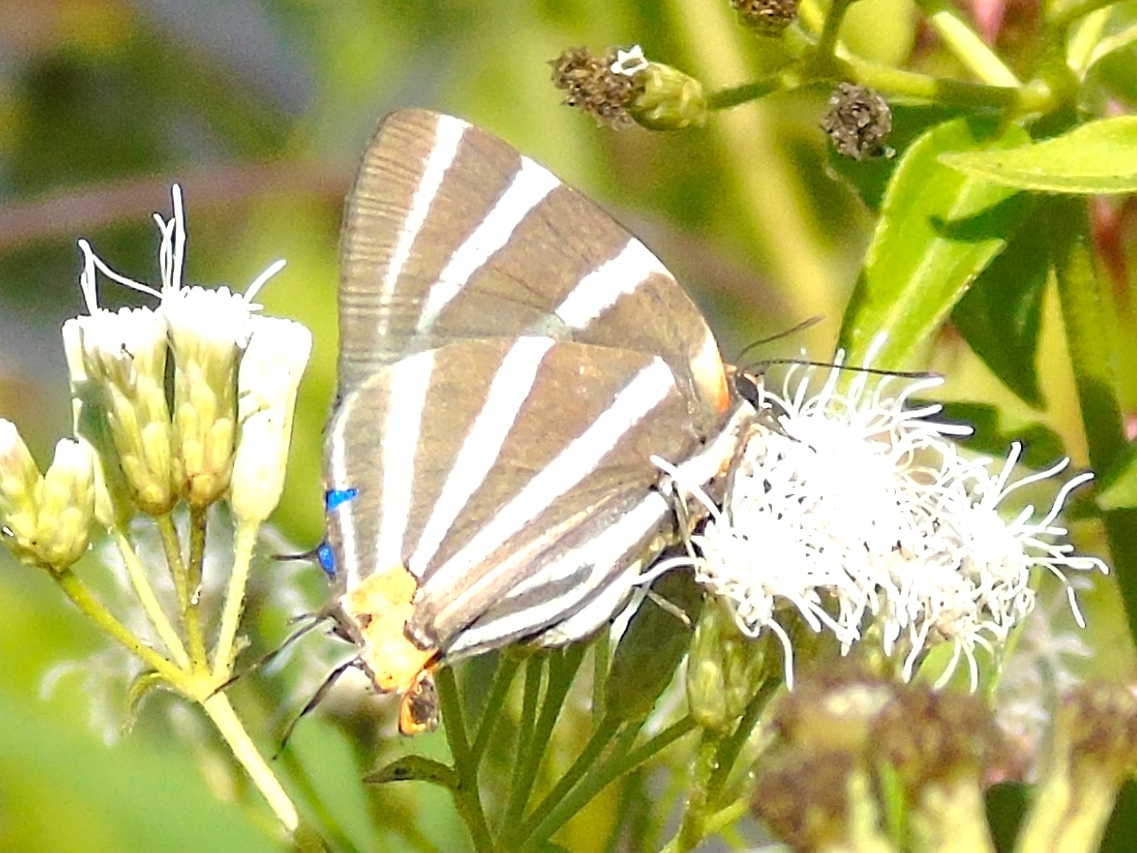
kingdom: Animalia
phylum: Arthropoda
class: Insecta
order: Lepidoptera
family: Lycaenidae
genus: Thecla
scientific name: Thecla bathildis
